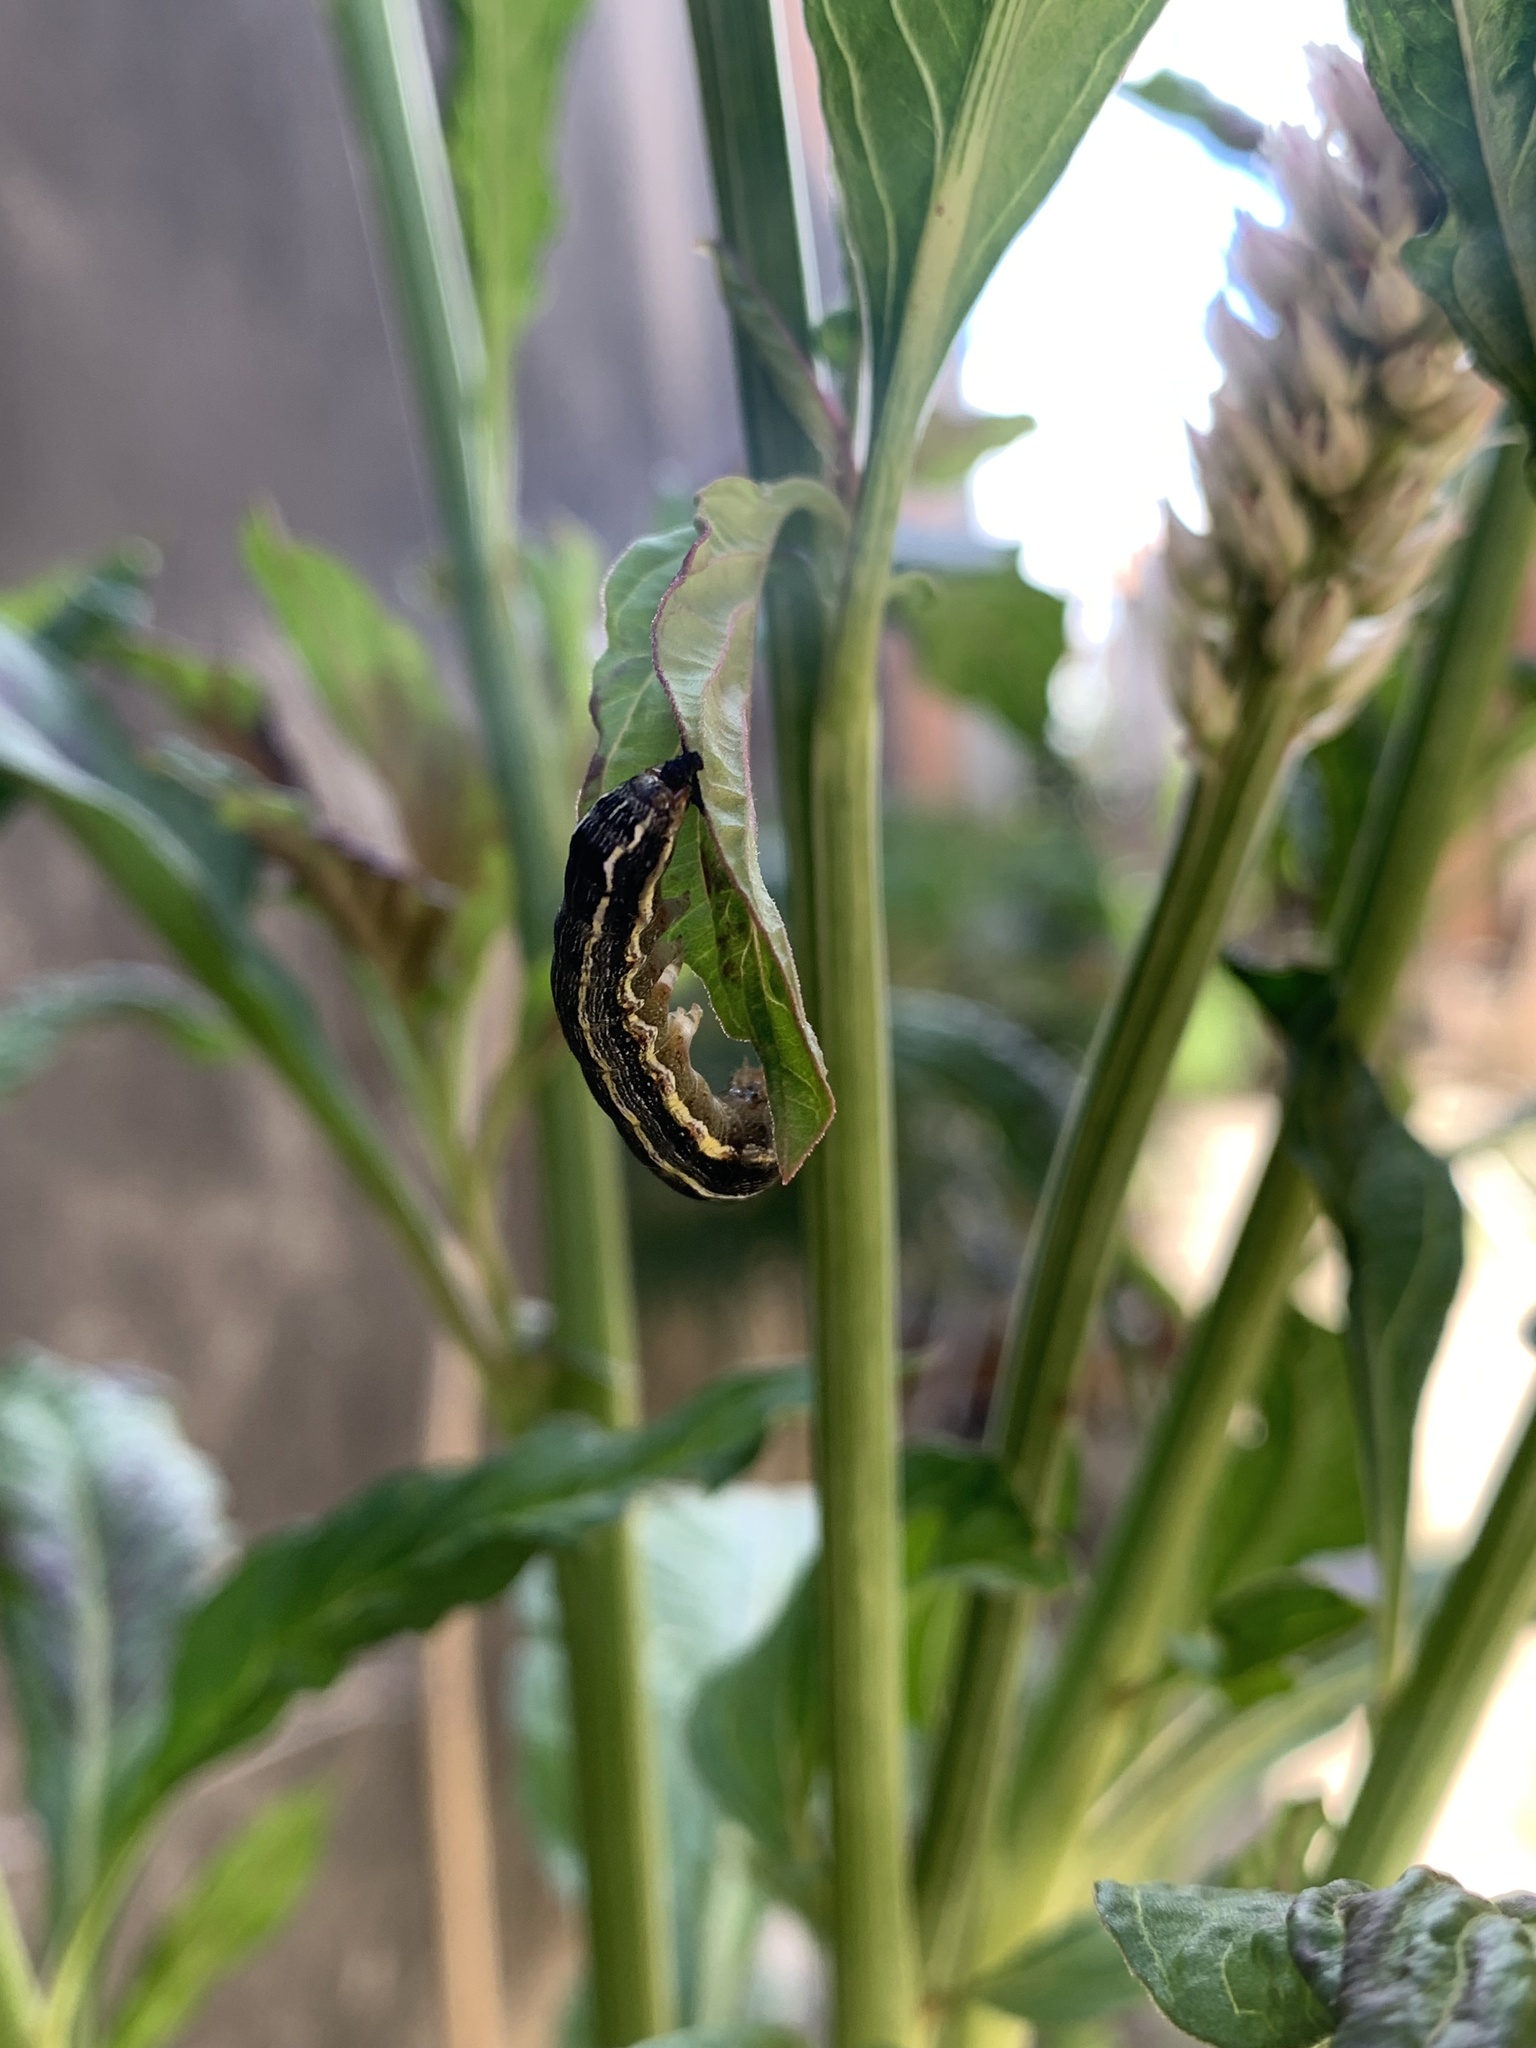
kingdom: Animalia
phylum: Arthropoda
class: Insecta
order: Lepidoptera
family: Noctuidae
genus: Spodoptera
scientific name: Spodoptera eridania
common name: Southern army worm
